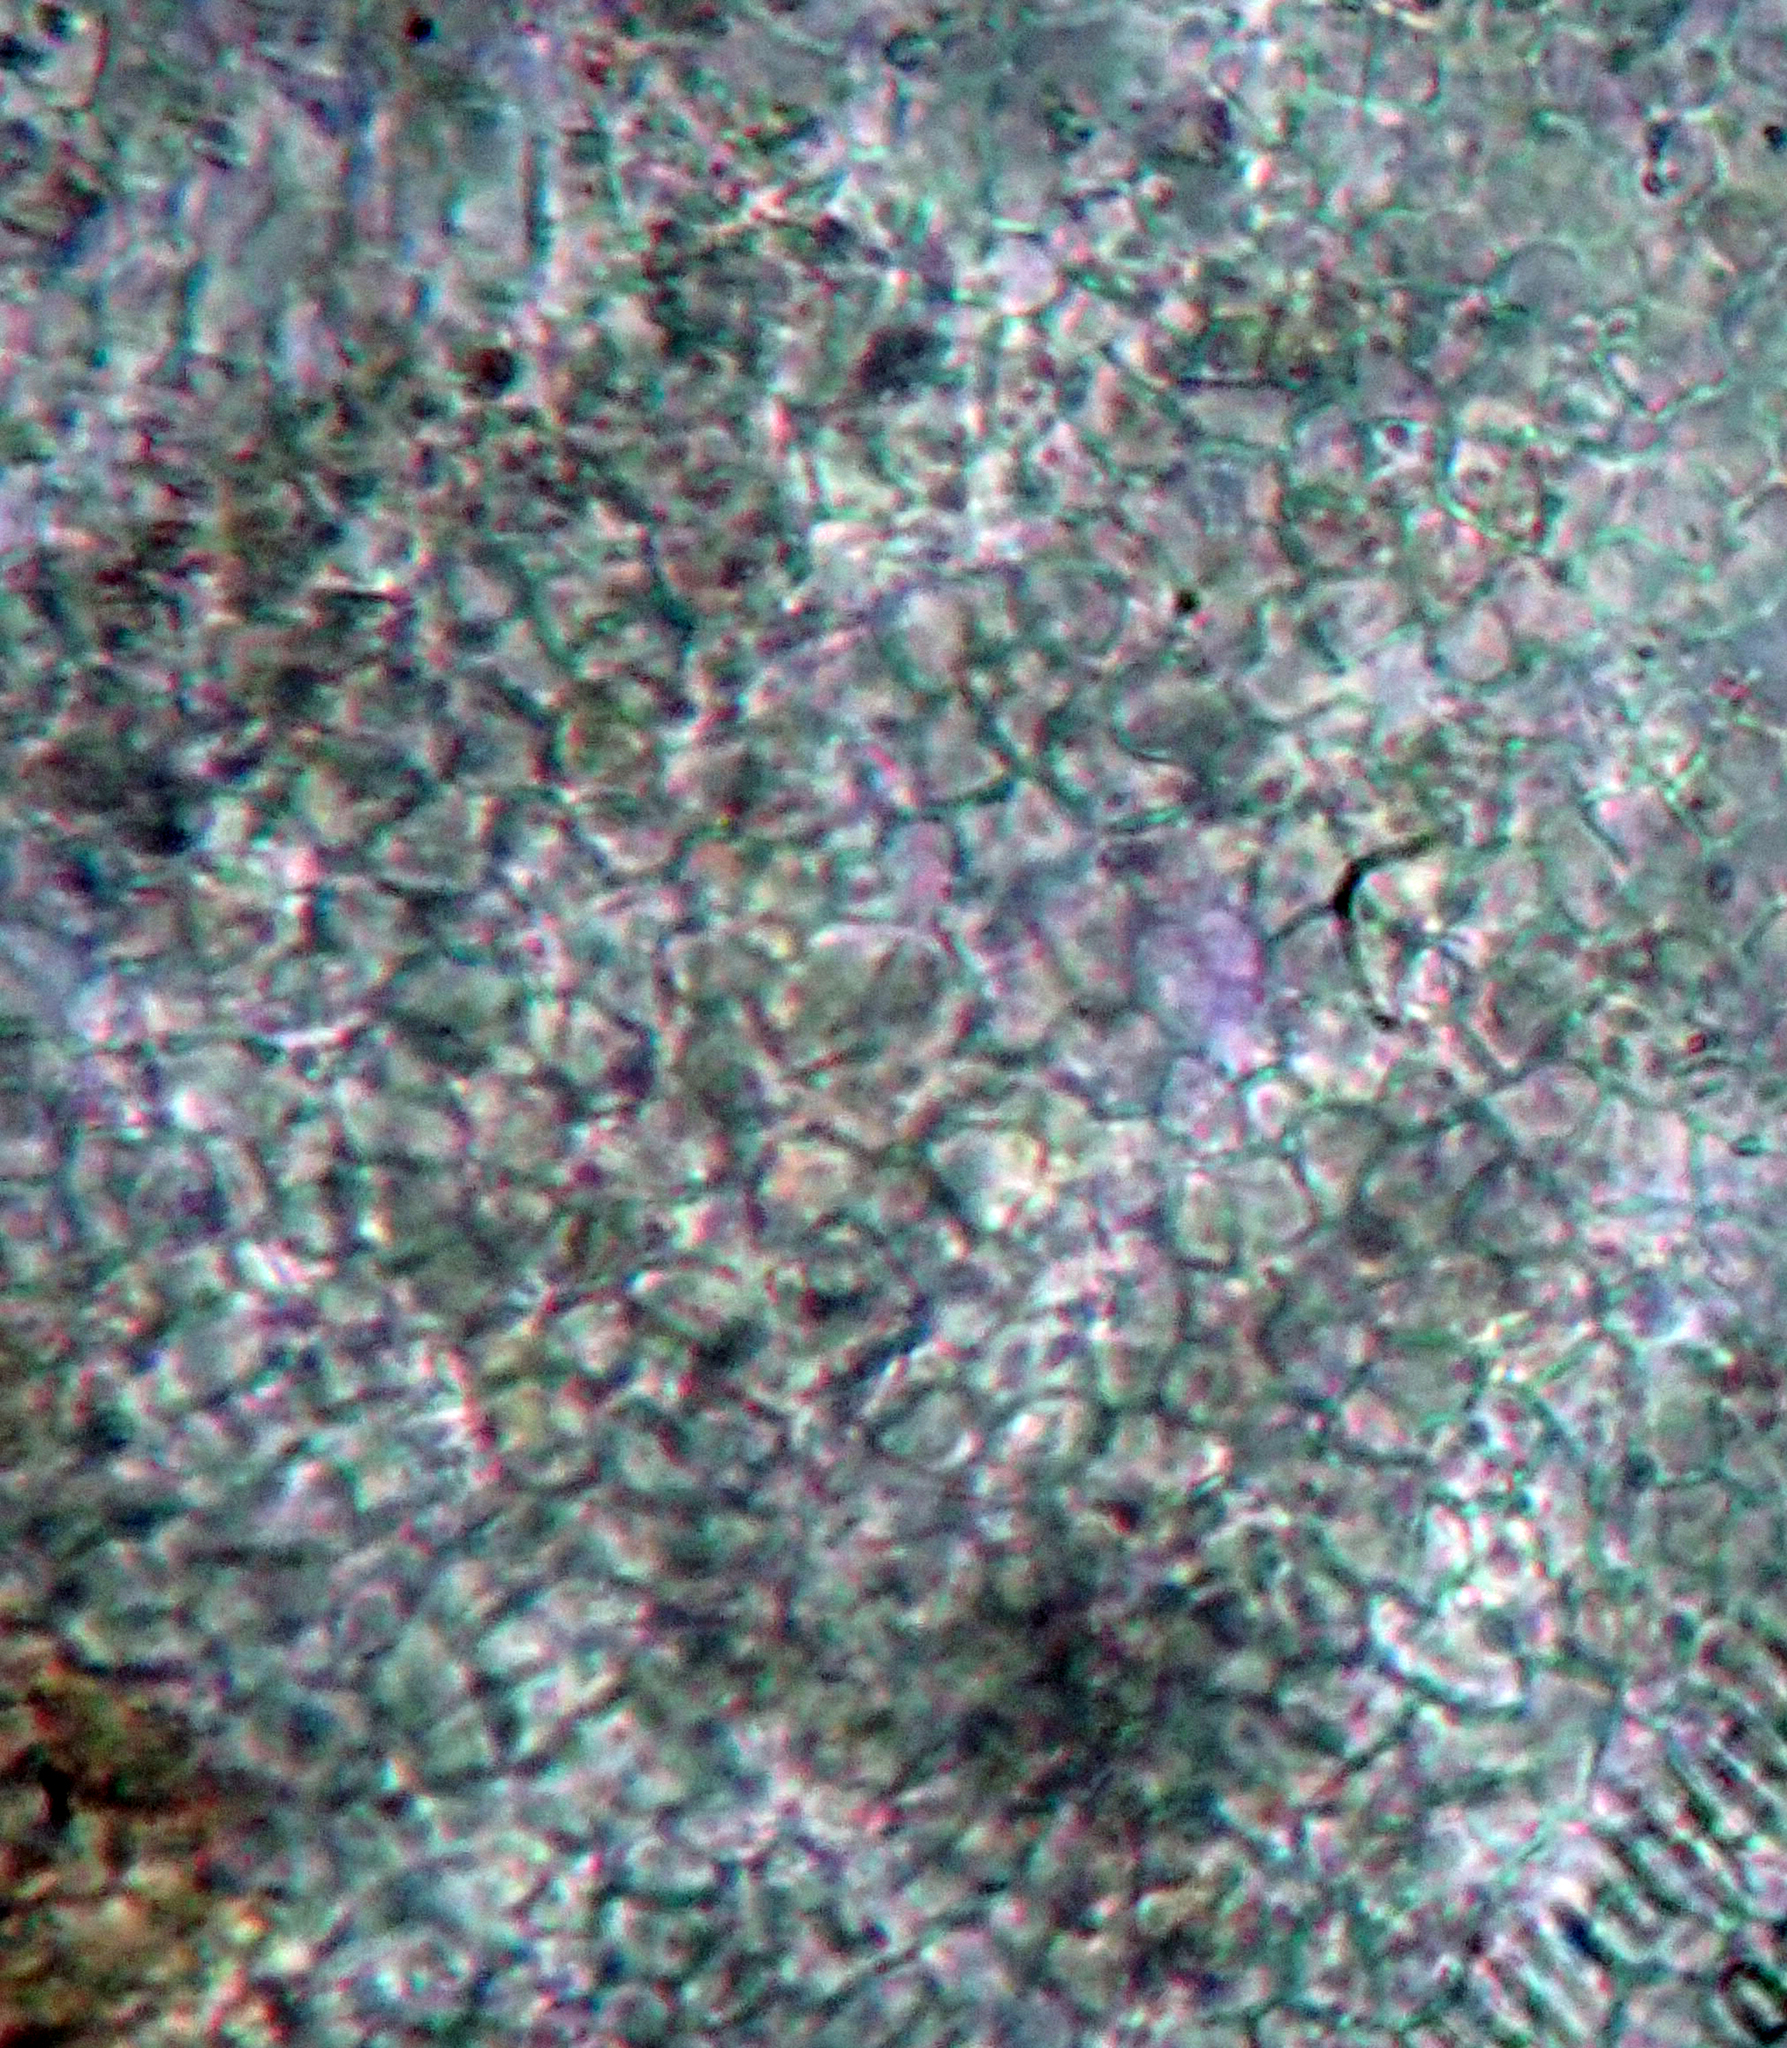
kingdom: Fungi
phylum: Ascomycota
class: Lecanoromycetes
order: Peltigerales
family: Collemataceae
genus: Leptogium
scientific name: Leptogium oceanianum
